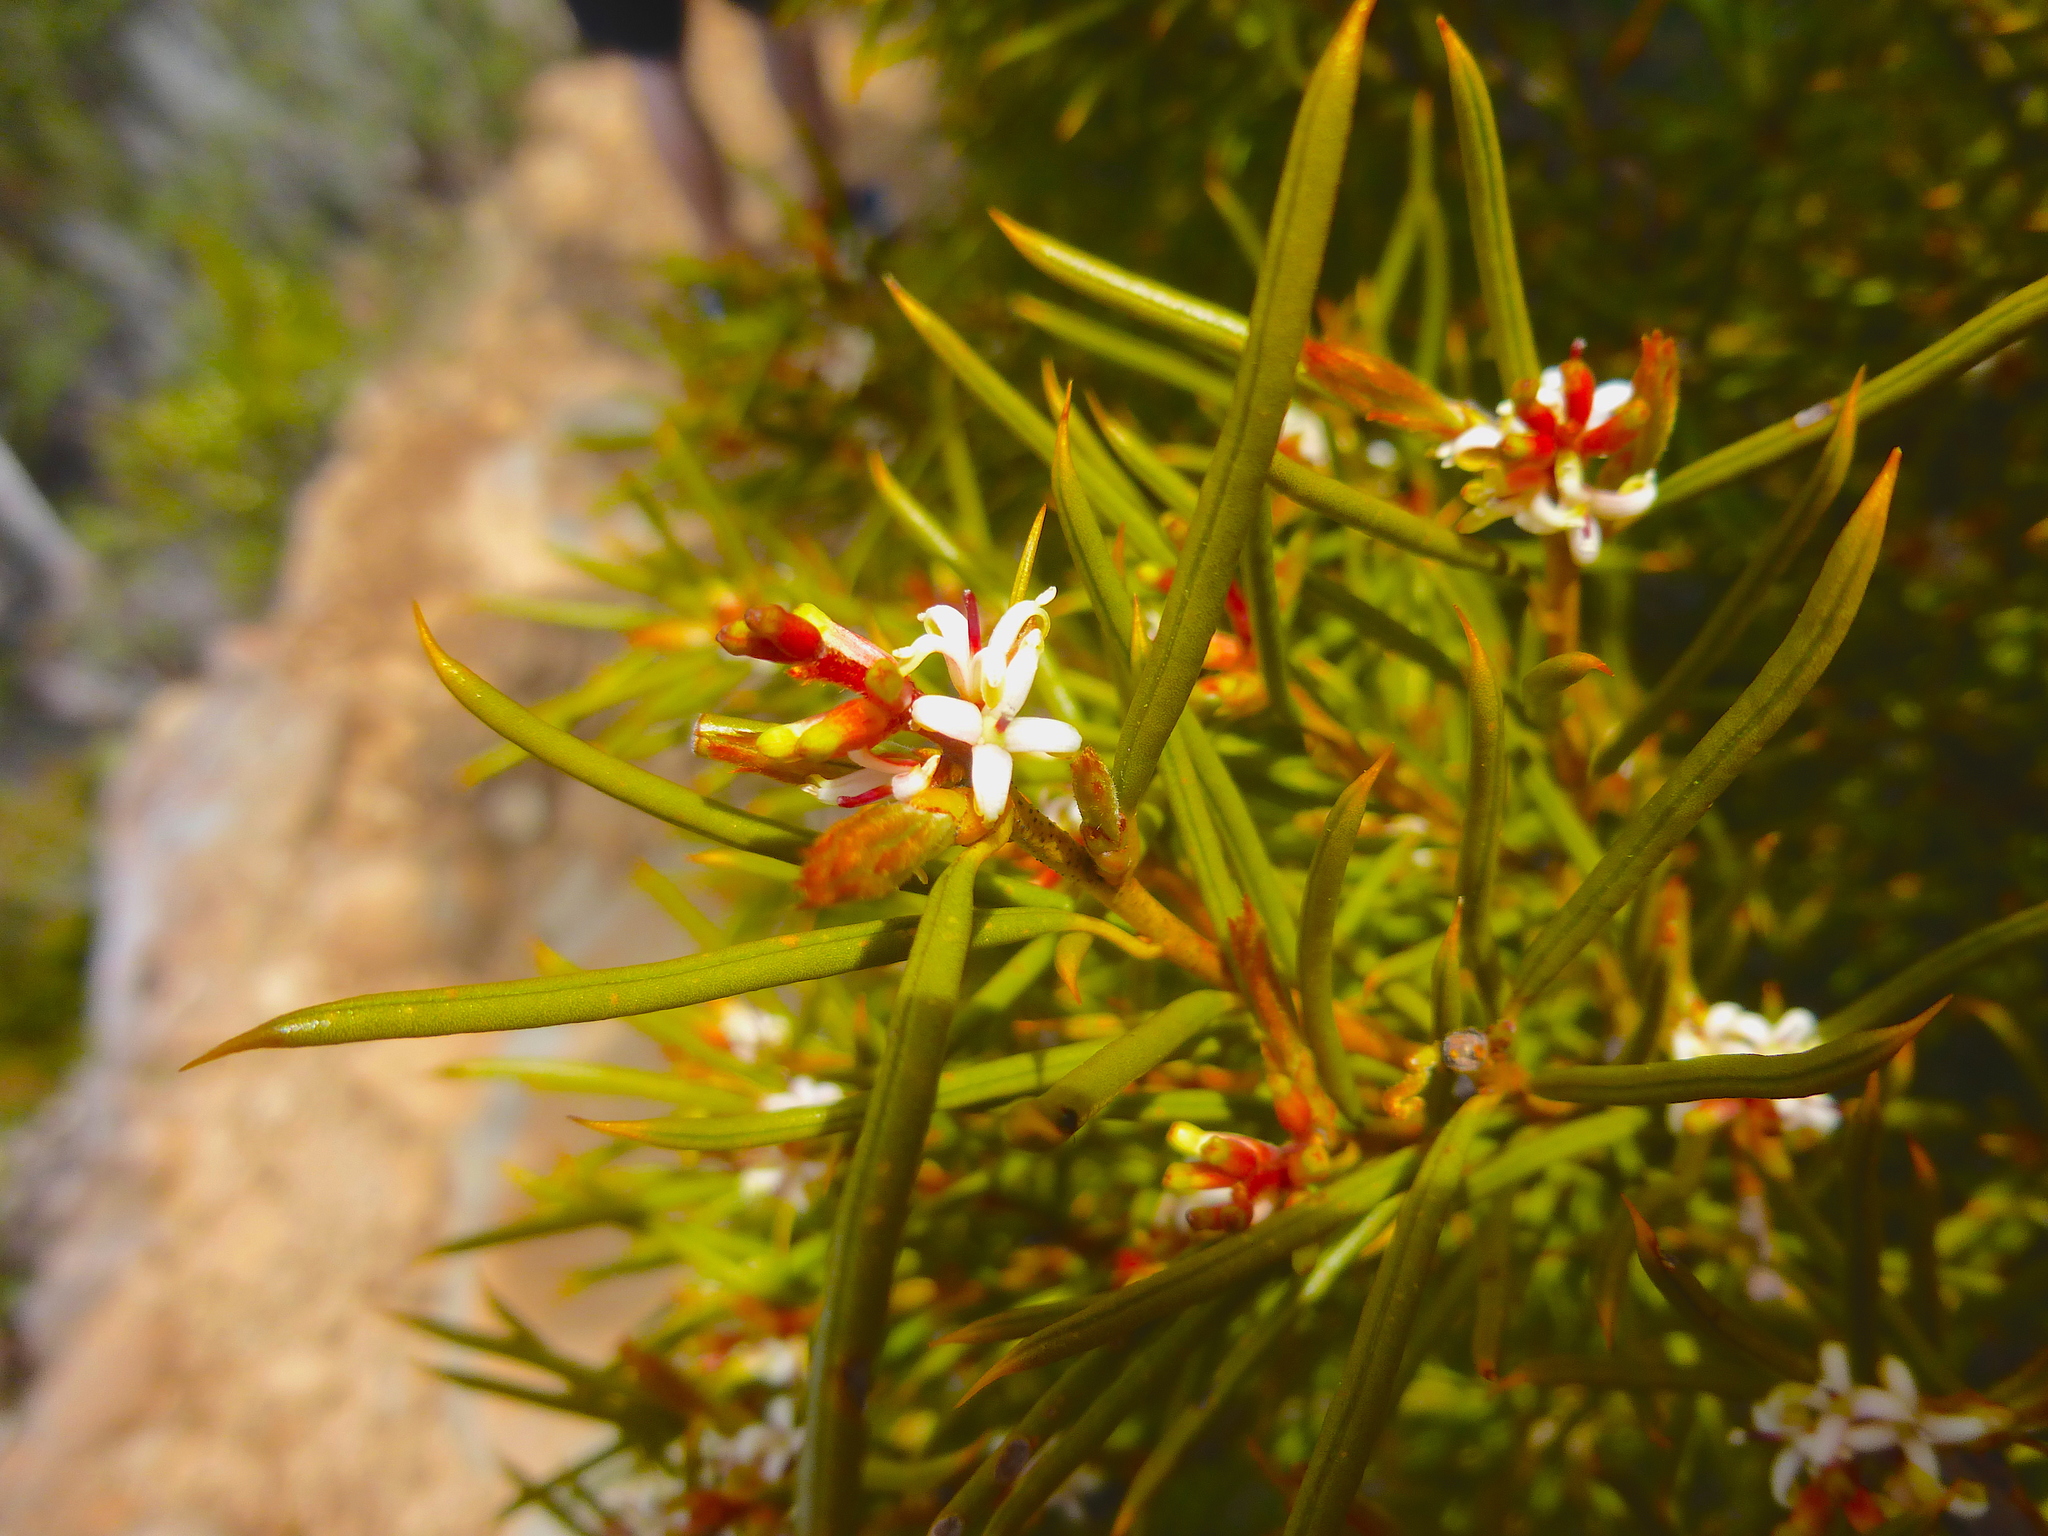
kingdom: Plantae
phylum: Tracheophyta
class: Magnoliopsida
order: Proteales
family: Proteaceae
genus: Orites
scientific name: Orites acicularis
